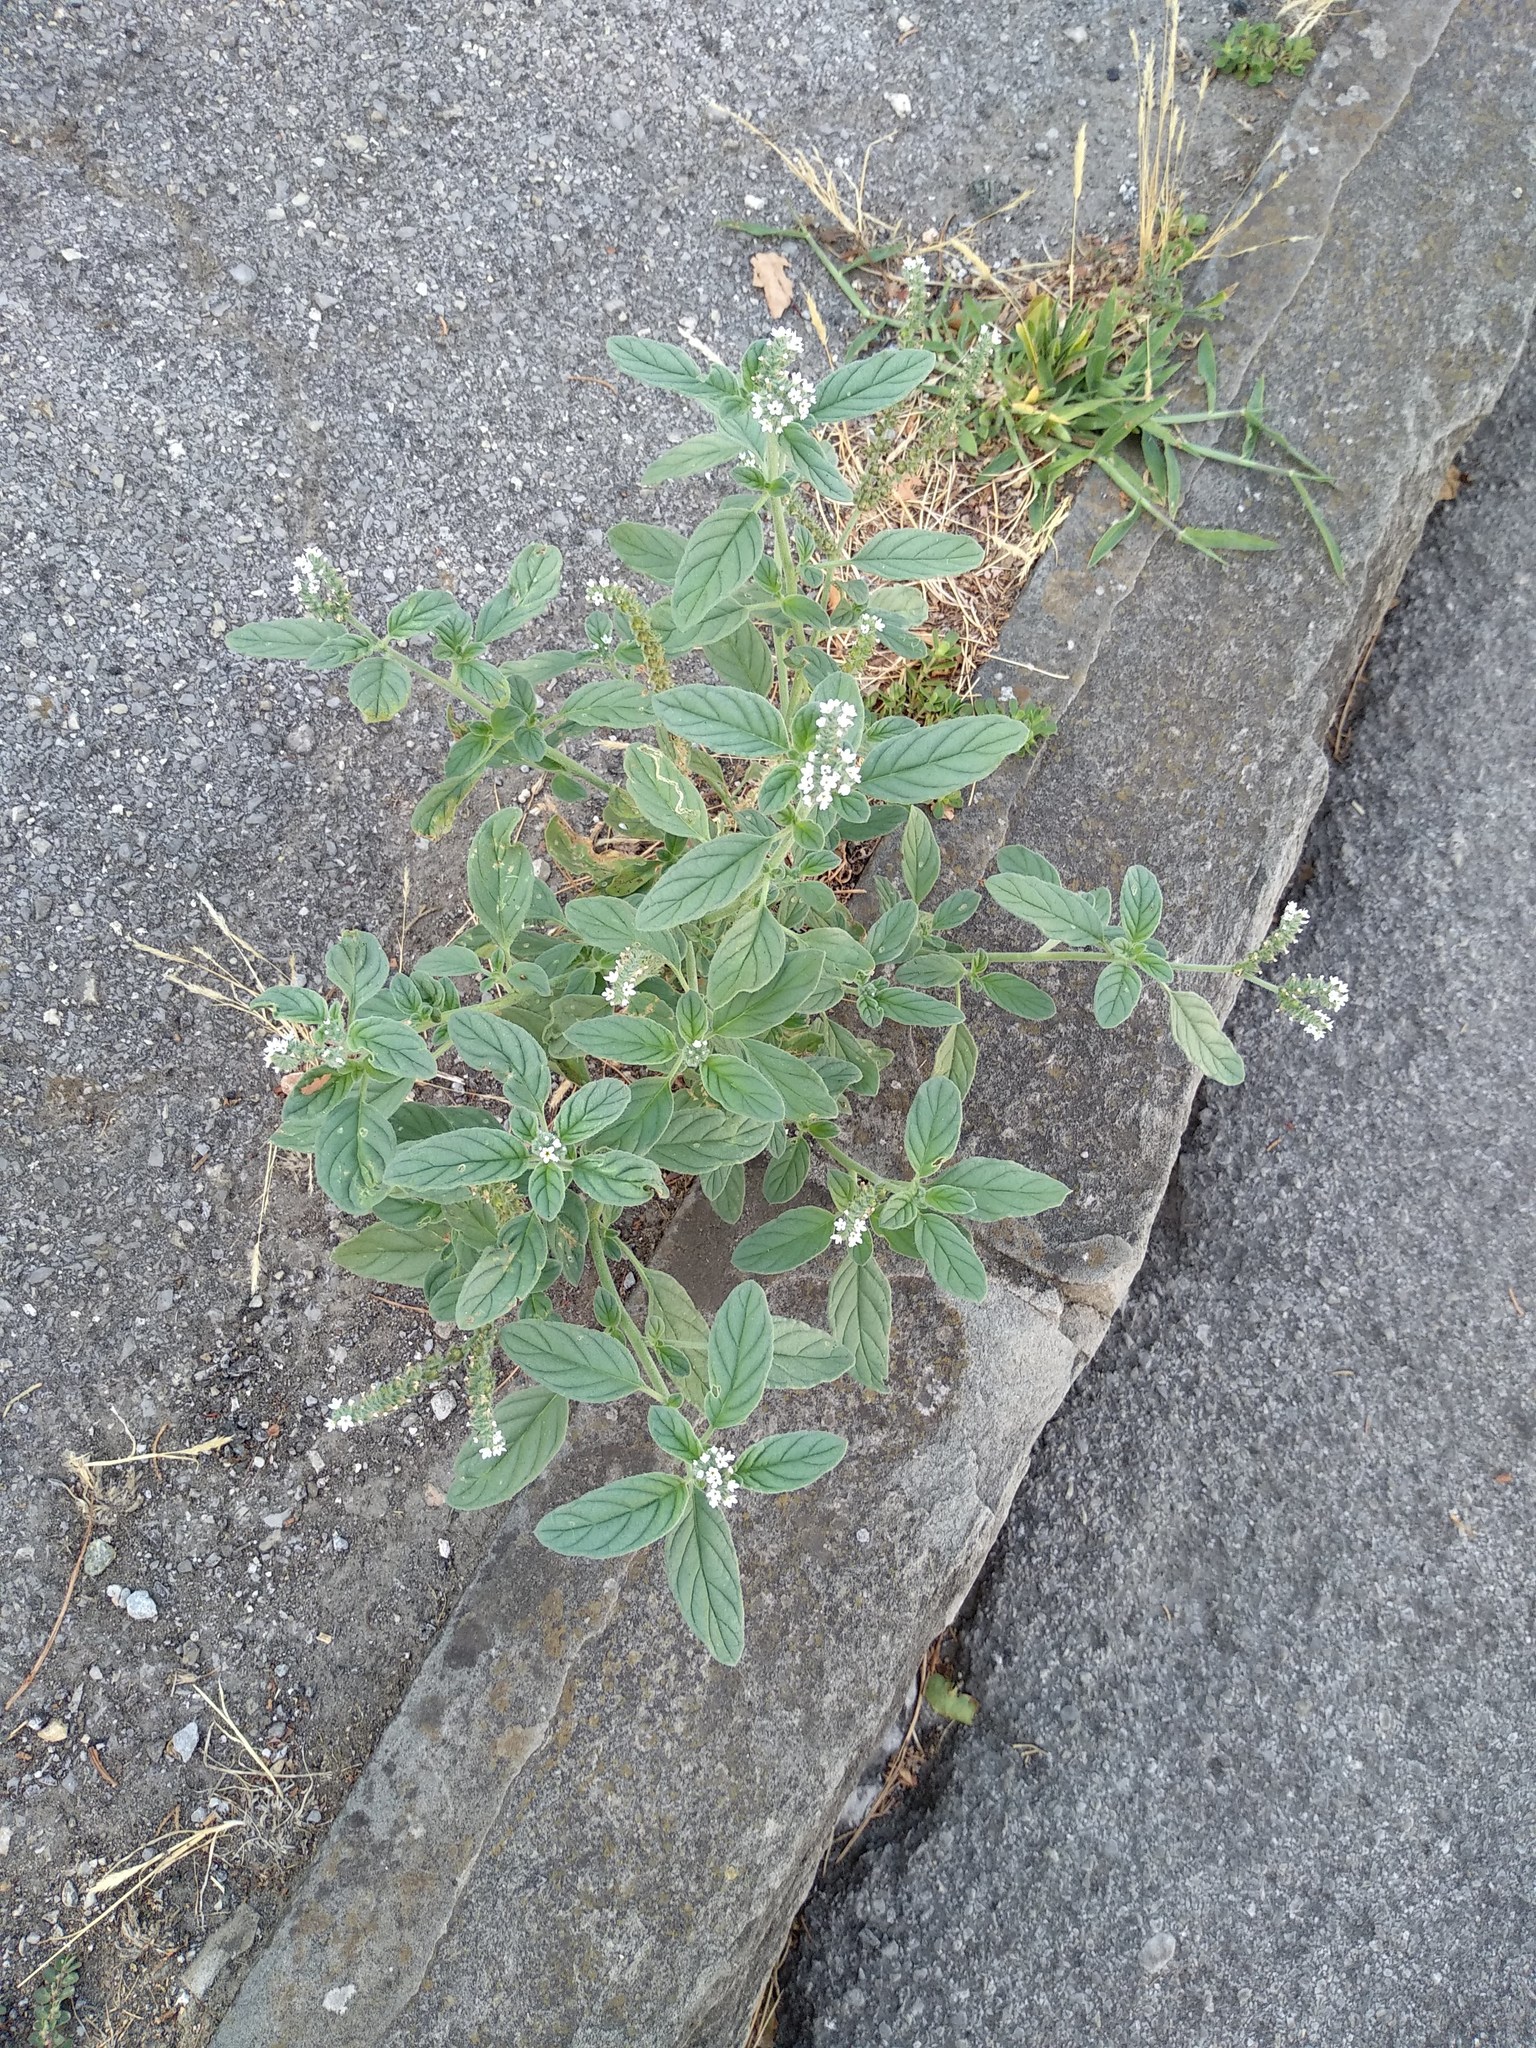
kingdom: Plantae
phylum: Tracheophyta
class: Magnoliopsida
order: Boraginales
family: Heliotropiaceae
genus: Heliotropium
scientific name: Heliotropium europaeum
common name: European heliotrope
